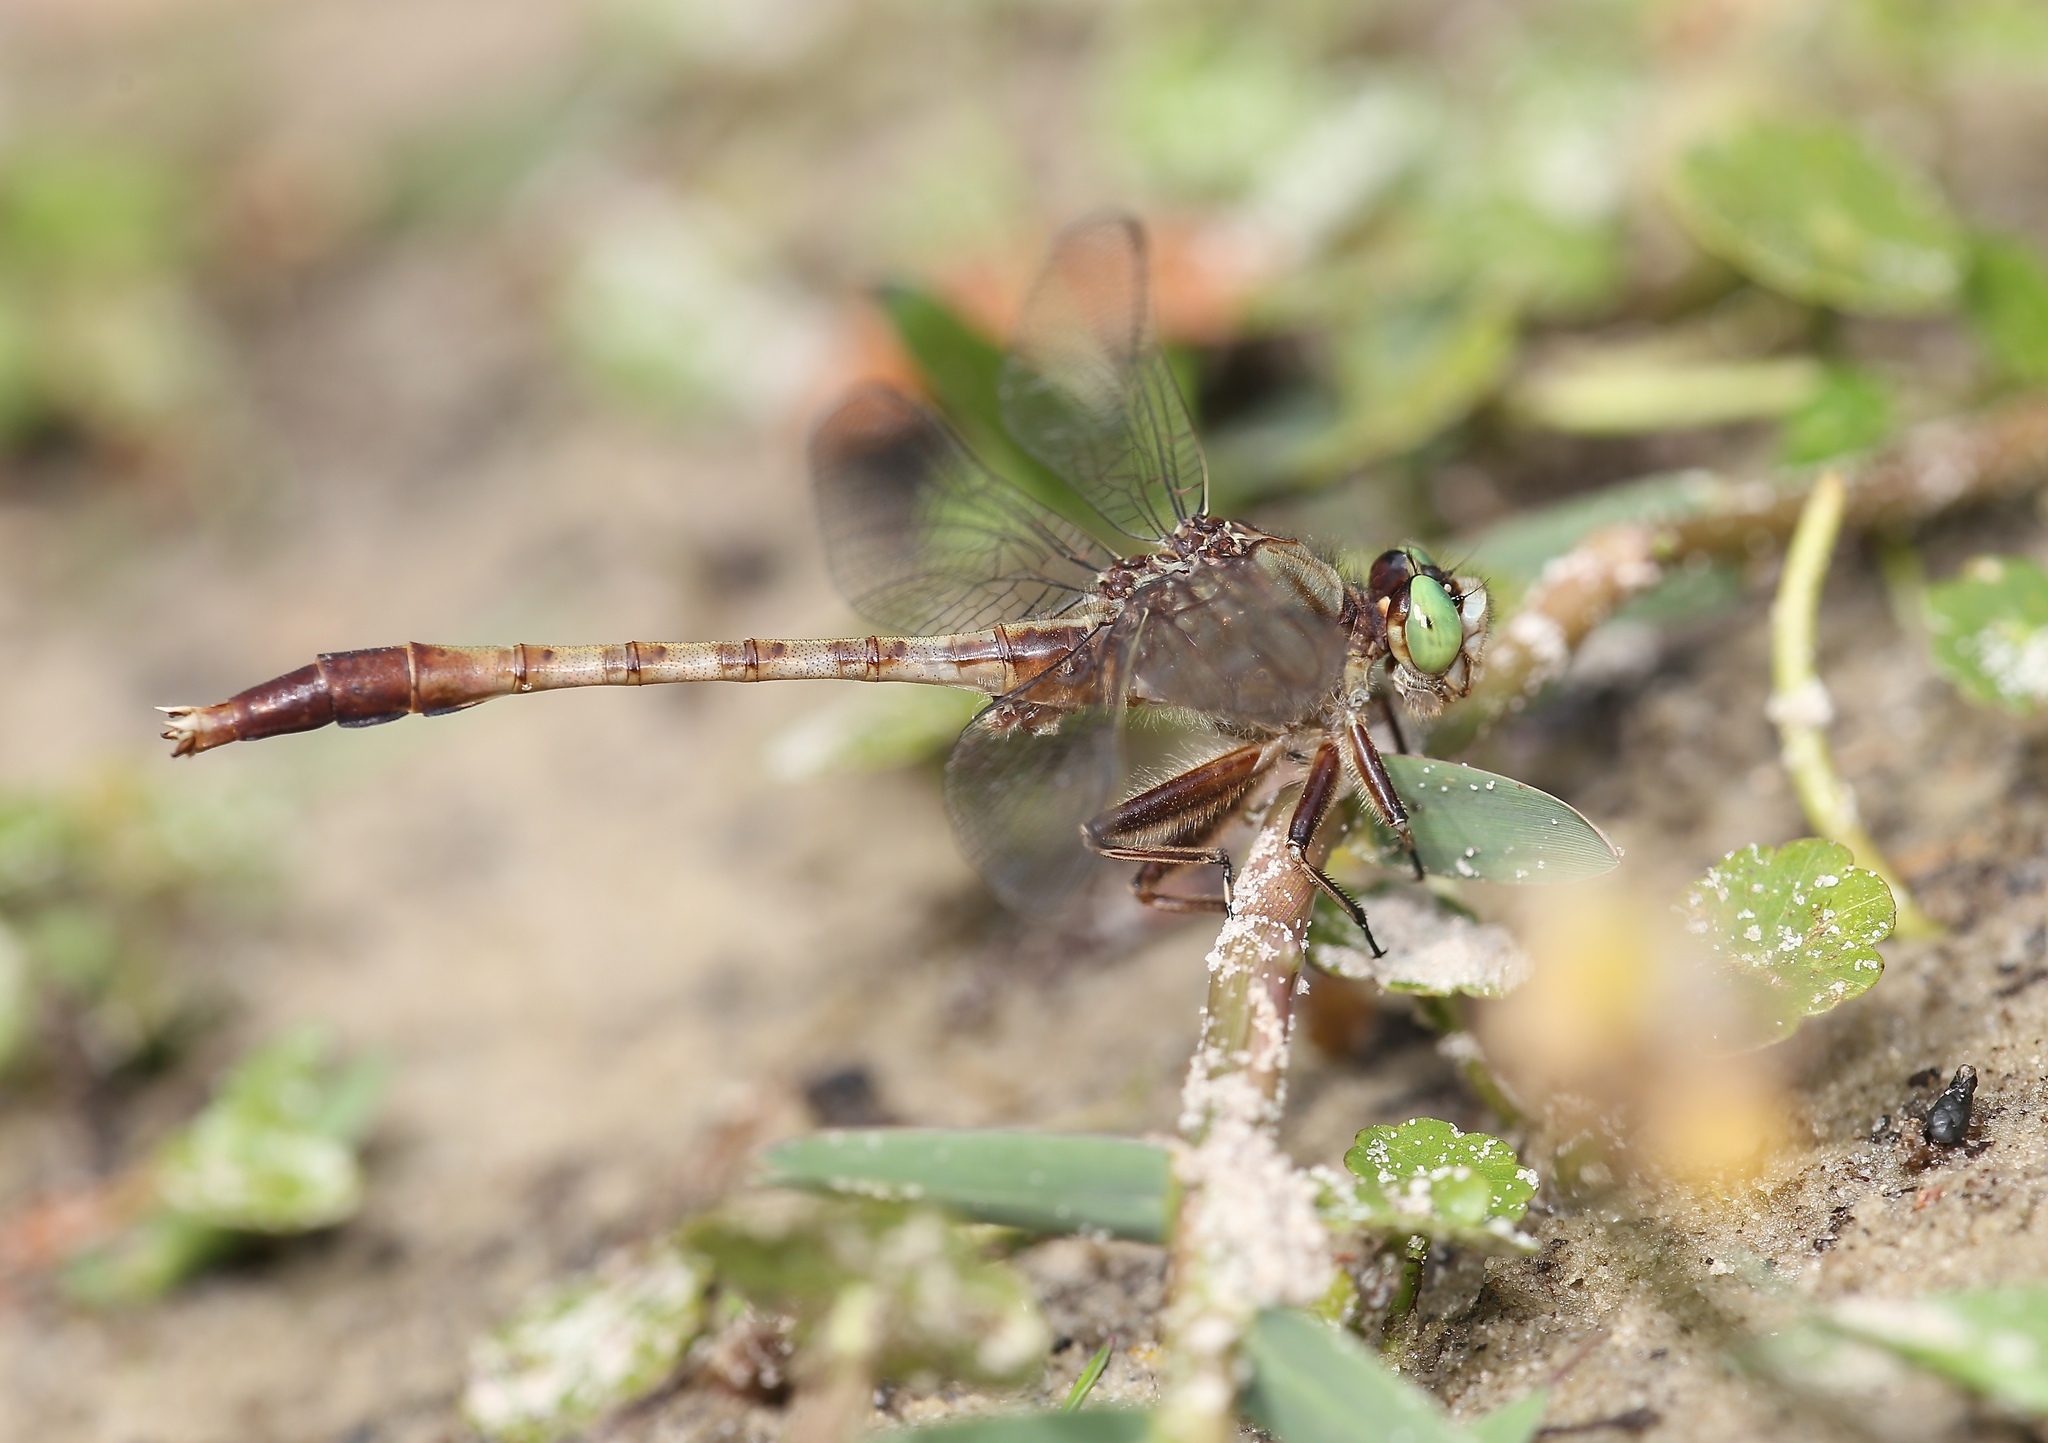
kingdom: Animalia
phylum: Arthropoda
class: Insecta
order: Odonata
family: Gomphidae
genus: Arigomphus
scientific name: Arigomphus pallidus
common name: Gray-green clubtail
